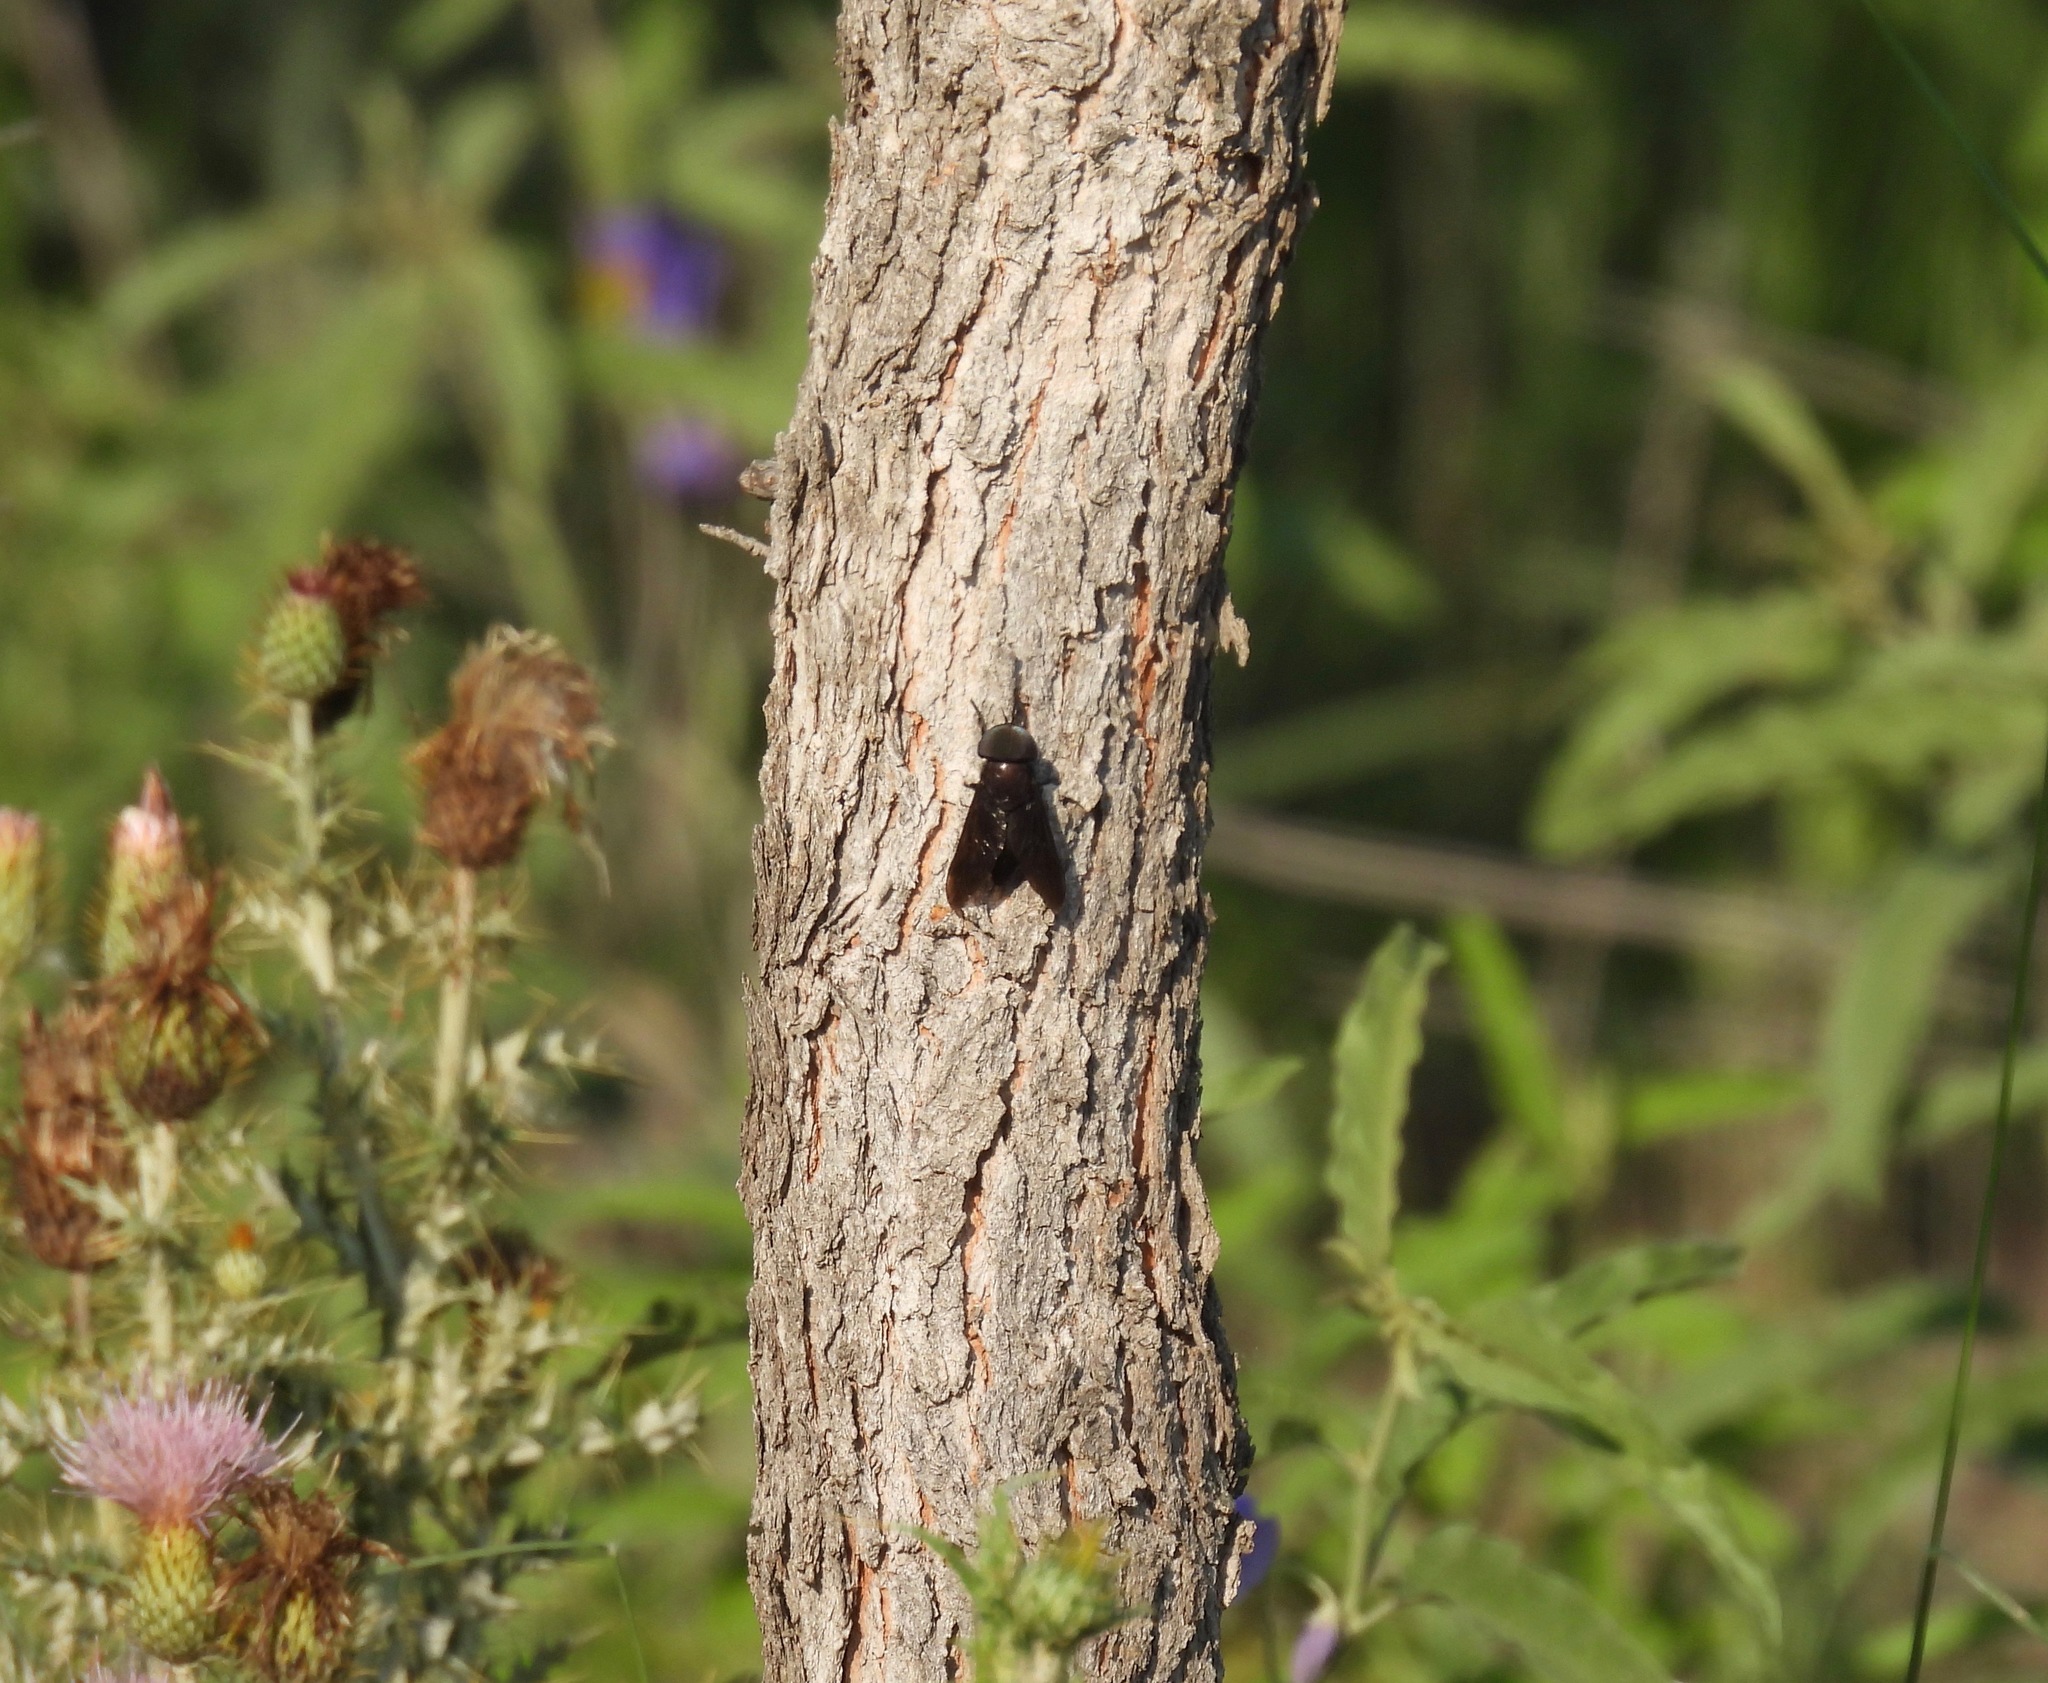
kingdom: Animalia
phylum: Arthropoda
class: Insecta
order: Diptera
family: Tabanidae
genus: Tabanus
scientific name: Tabanus atratus
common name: Black horse fly
